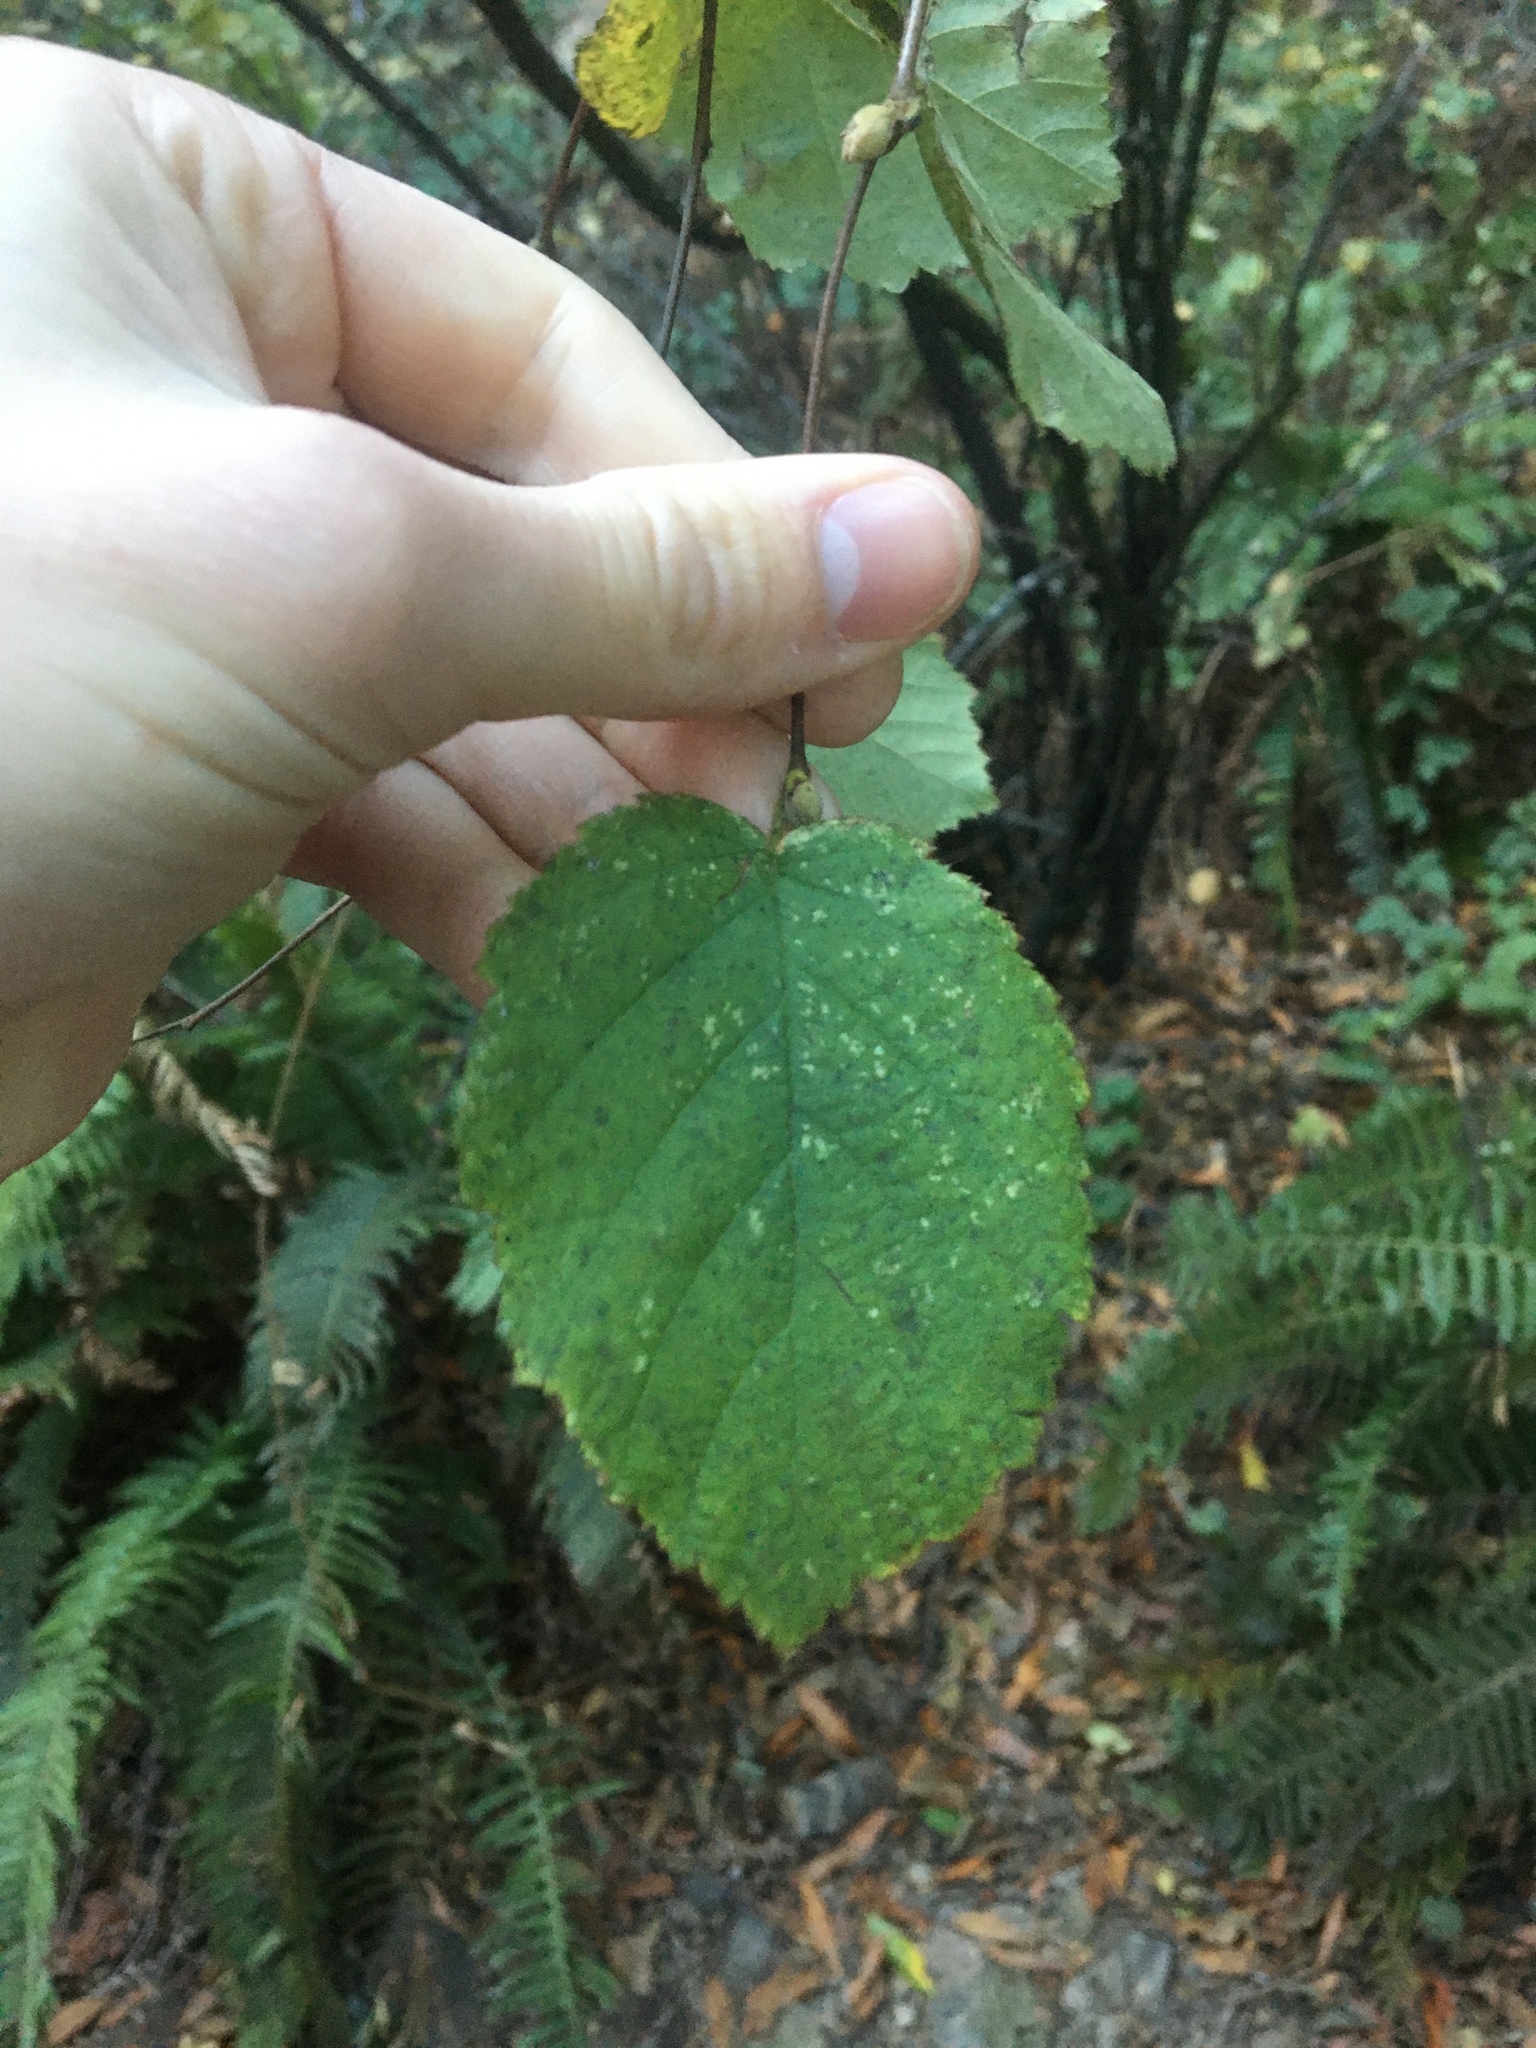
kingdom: Plantae
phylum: Tracheophyta
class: Magnoliopsida
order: Fagales
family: Betulaceae
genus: Corylus
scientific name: Corylus cornuta
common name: Beaked hazel
